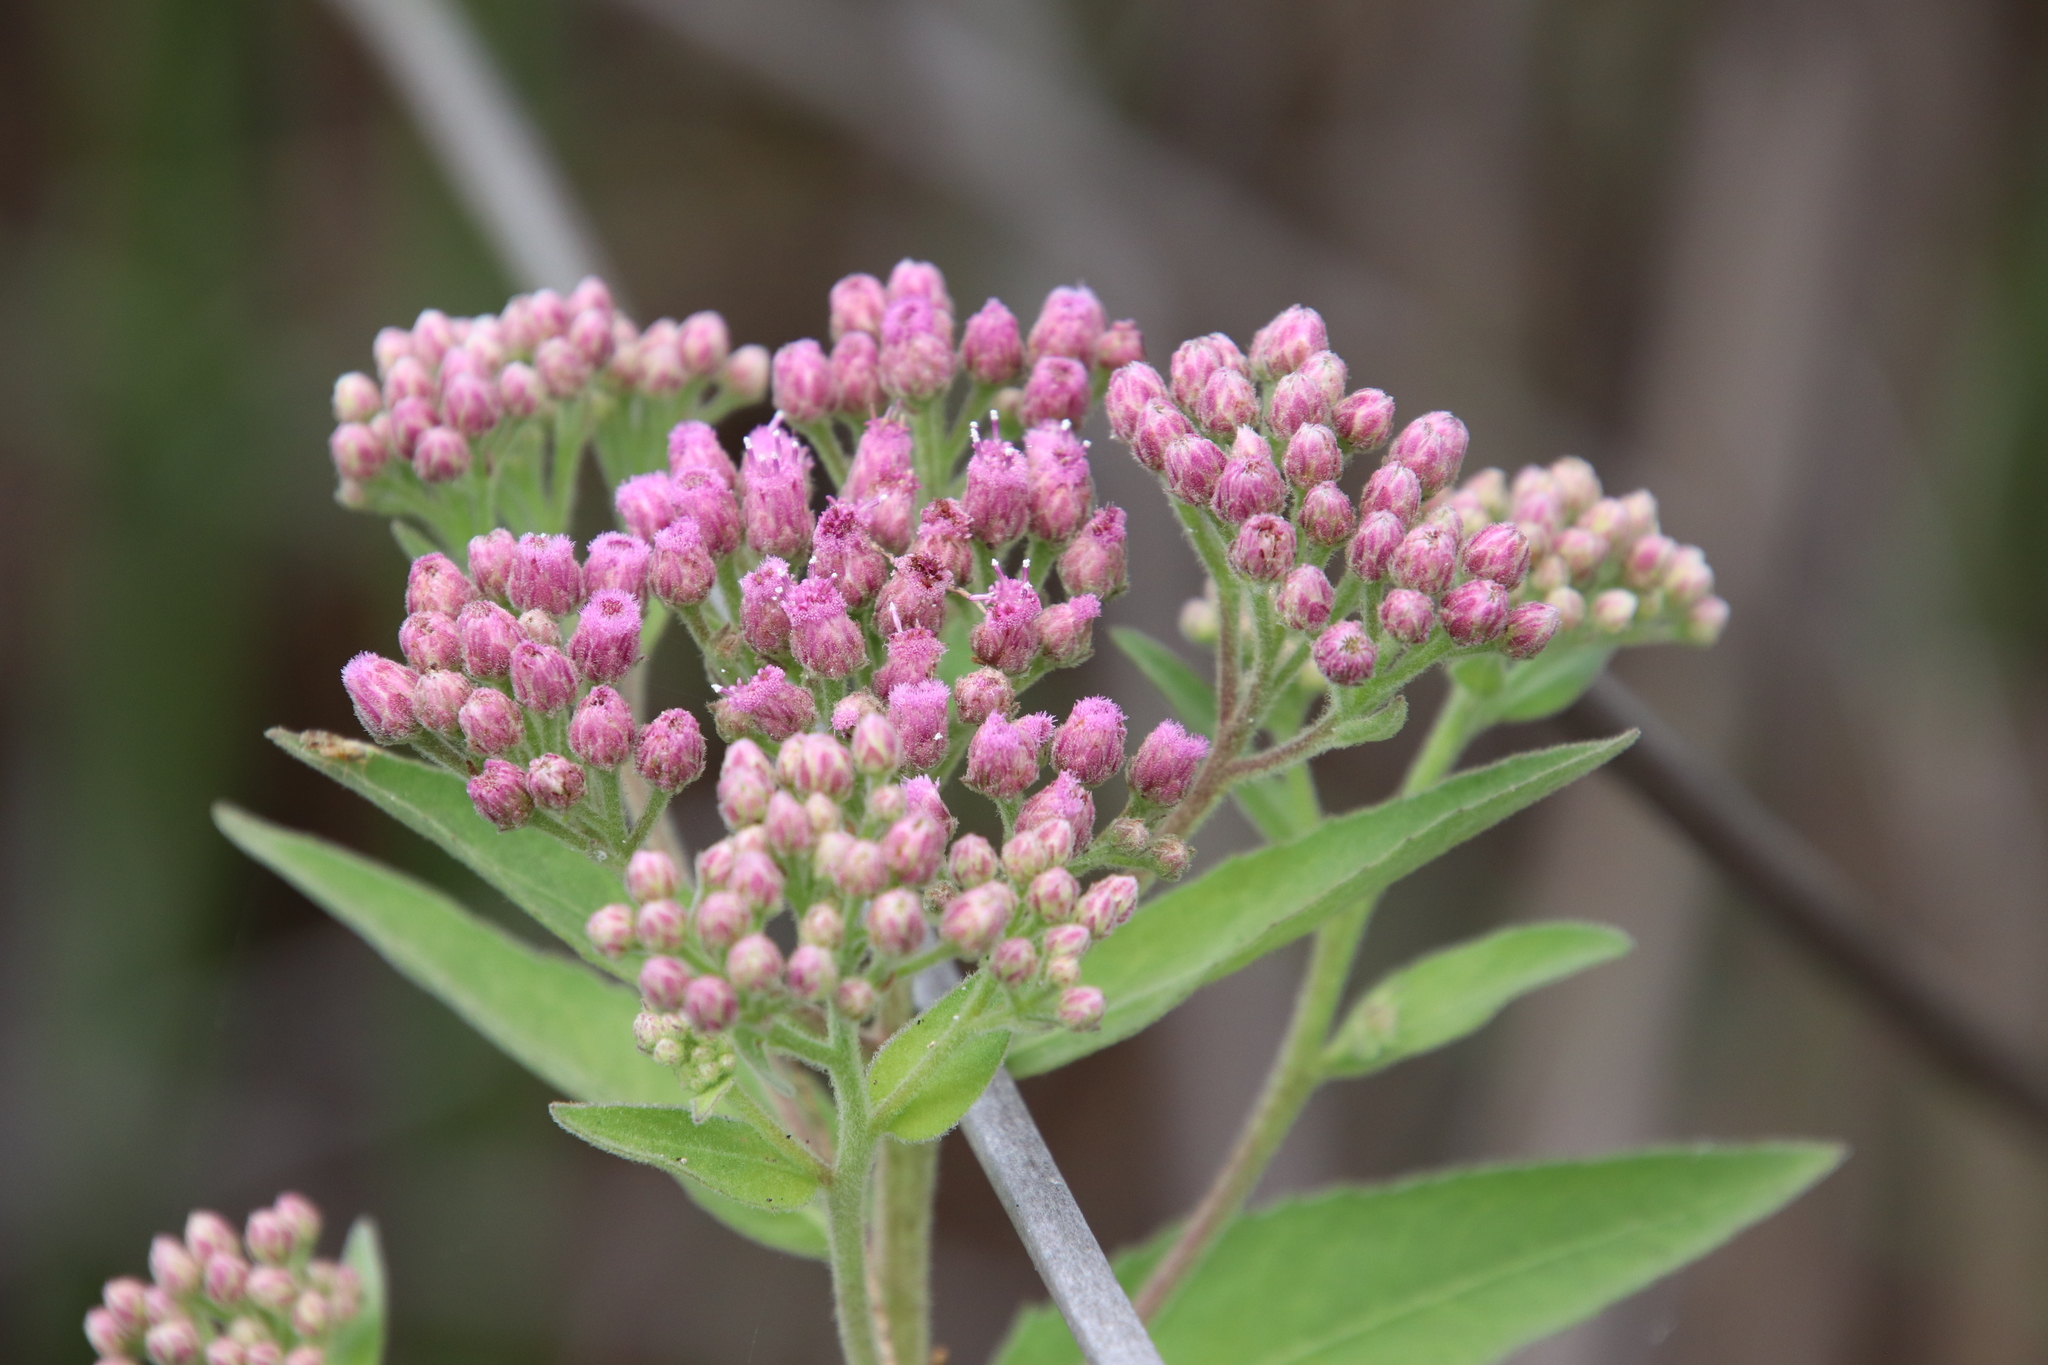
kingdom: Plantae
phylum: Tracheophyta
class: Magnoliopsida
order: Asterales
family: Asteraceae
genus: Pluchea
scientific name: Pluchea odorata
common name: Saltmarsh fleabane
